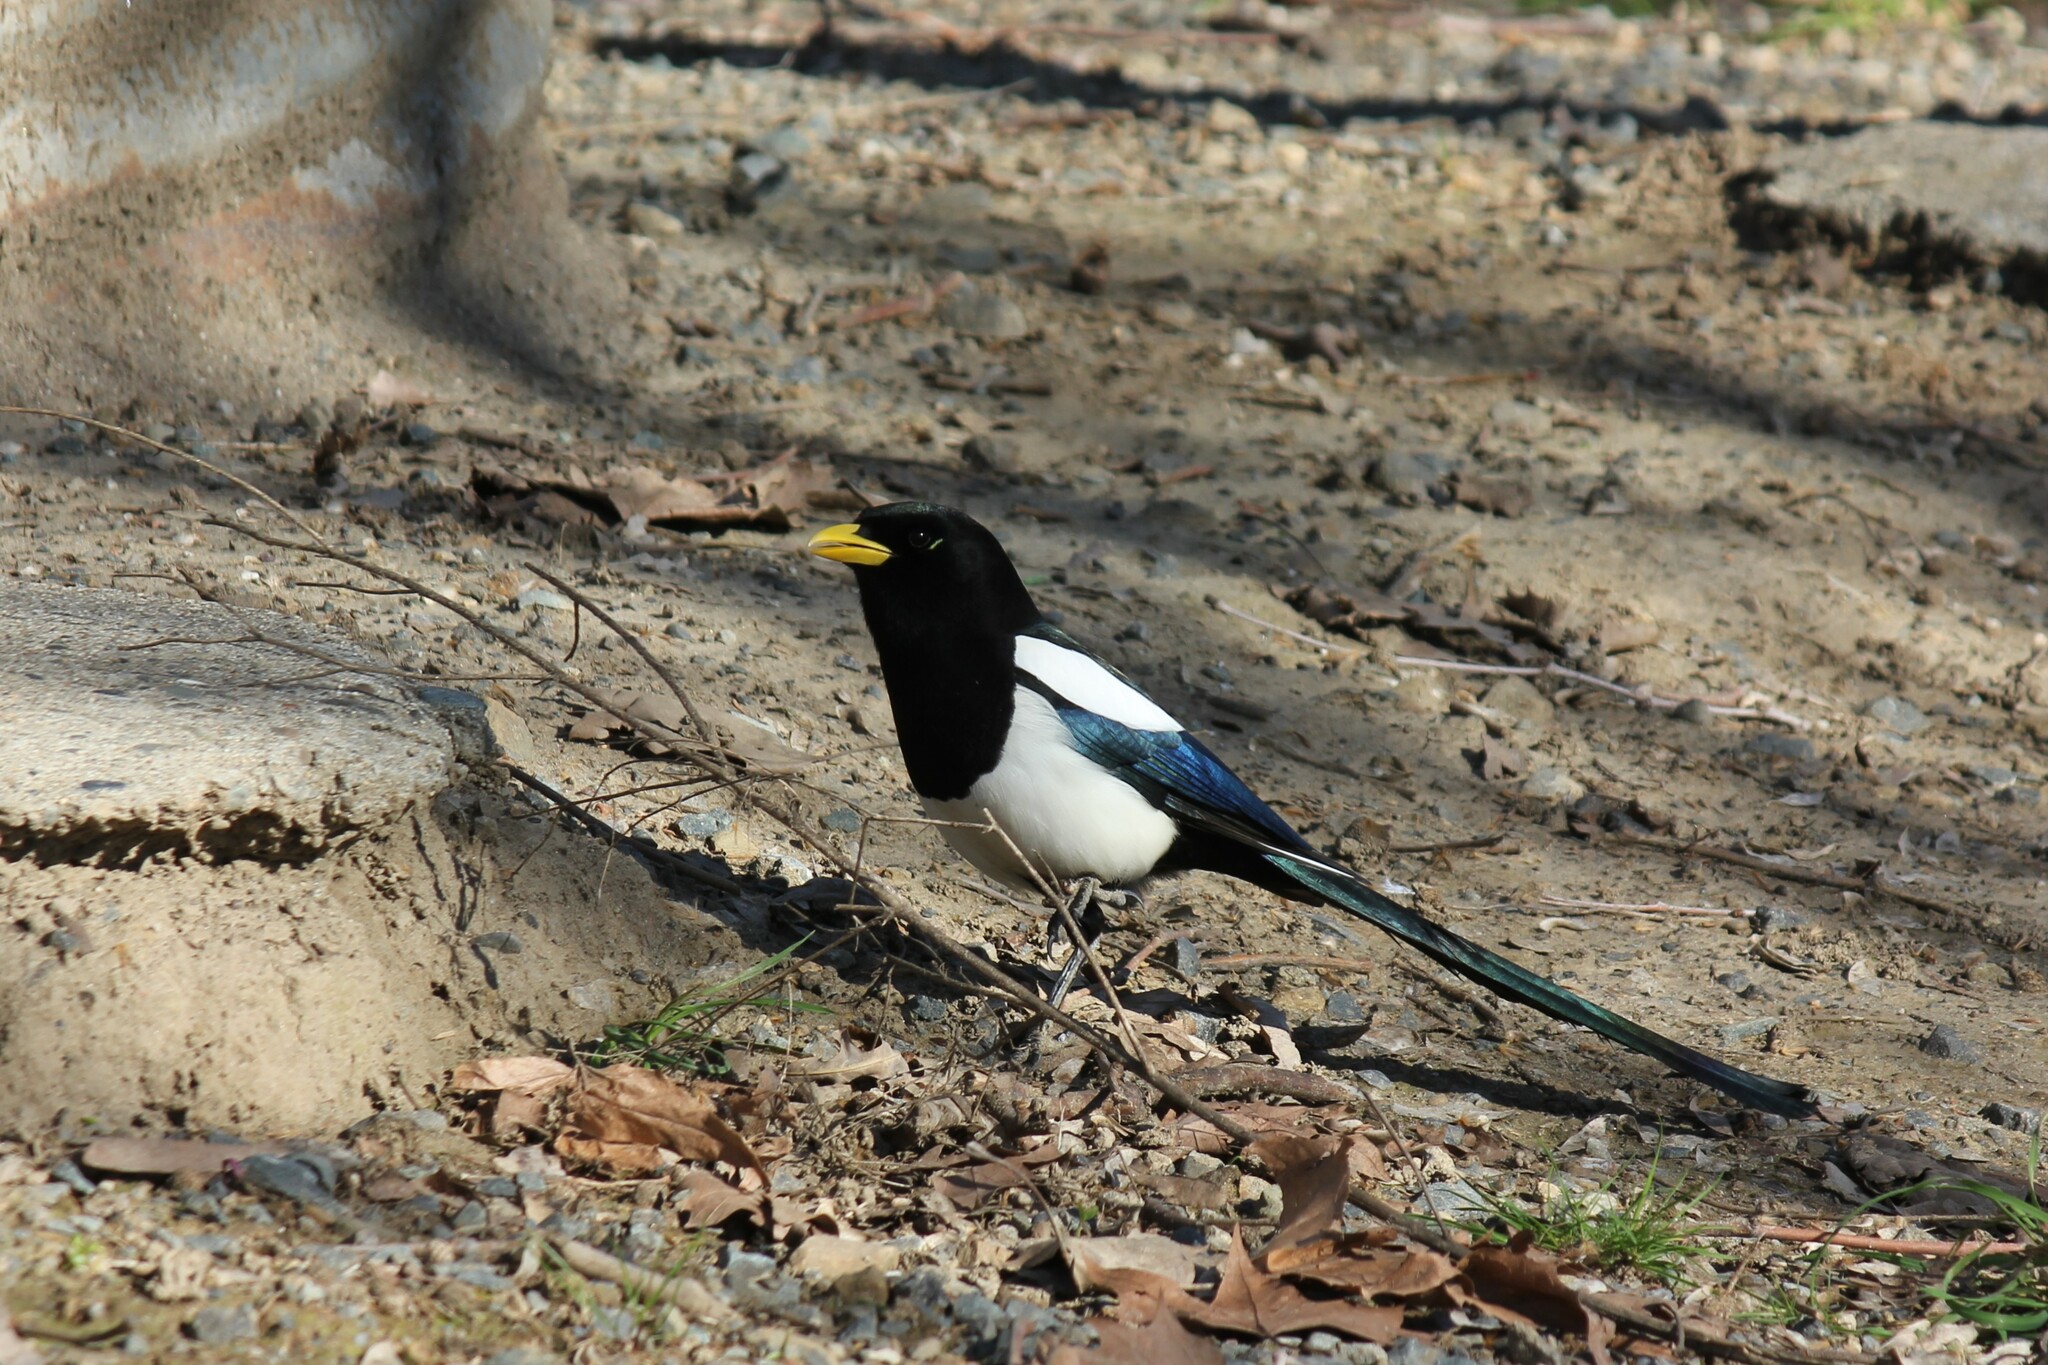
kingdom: Animalia
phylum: Chordata
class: Aves
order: Passeriformes
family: Corvidae
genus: Pica
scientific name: Pica nuttalli
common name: Yellow-billed magpie
